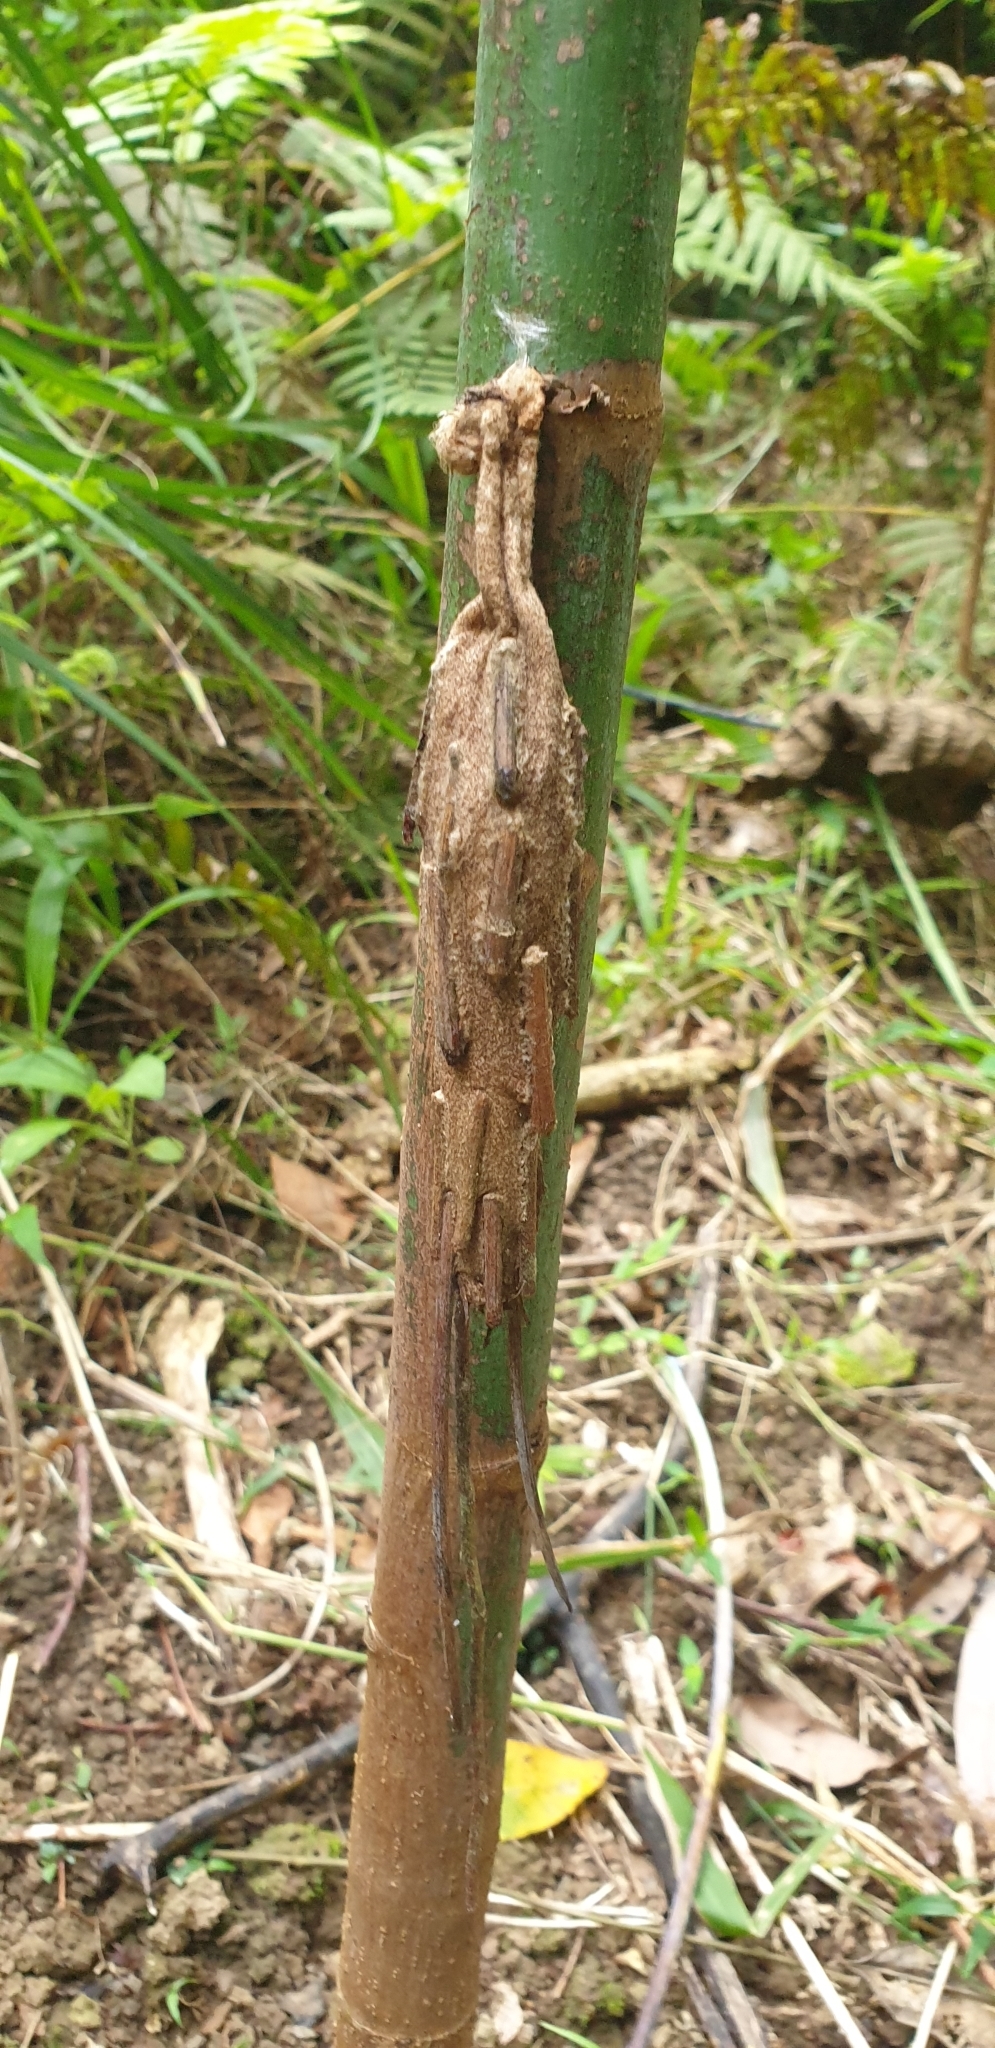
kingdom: Animalia
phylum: Arthropoda
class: Insecta
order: Lepidoptera
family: Psychidae
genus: Metura
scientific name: Metura elongatus
